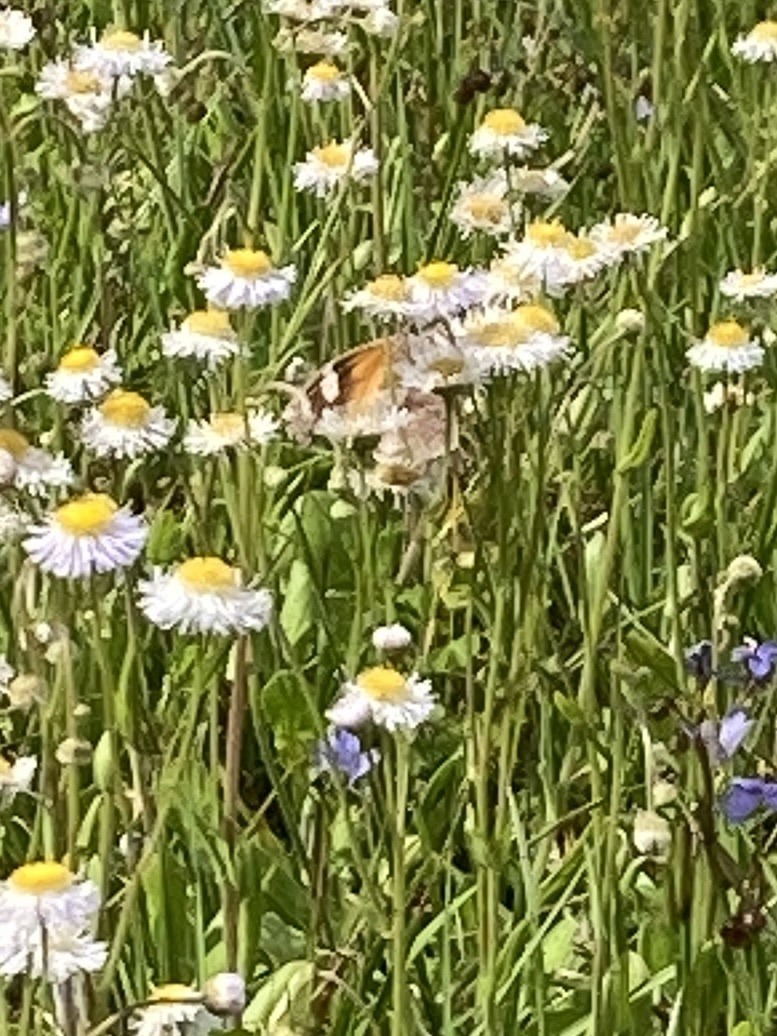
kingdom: Animalia
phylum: Arthropoda
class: Insecta
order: Lepidoptera
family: Nymphalidae
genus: Libytheana
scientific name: Libytheana carinenta
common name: American snout
